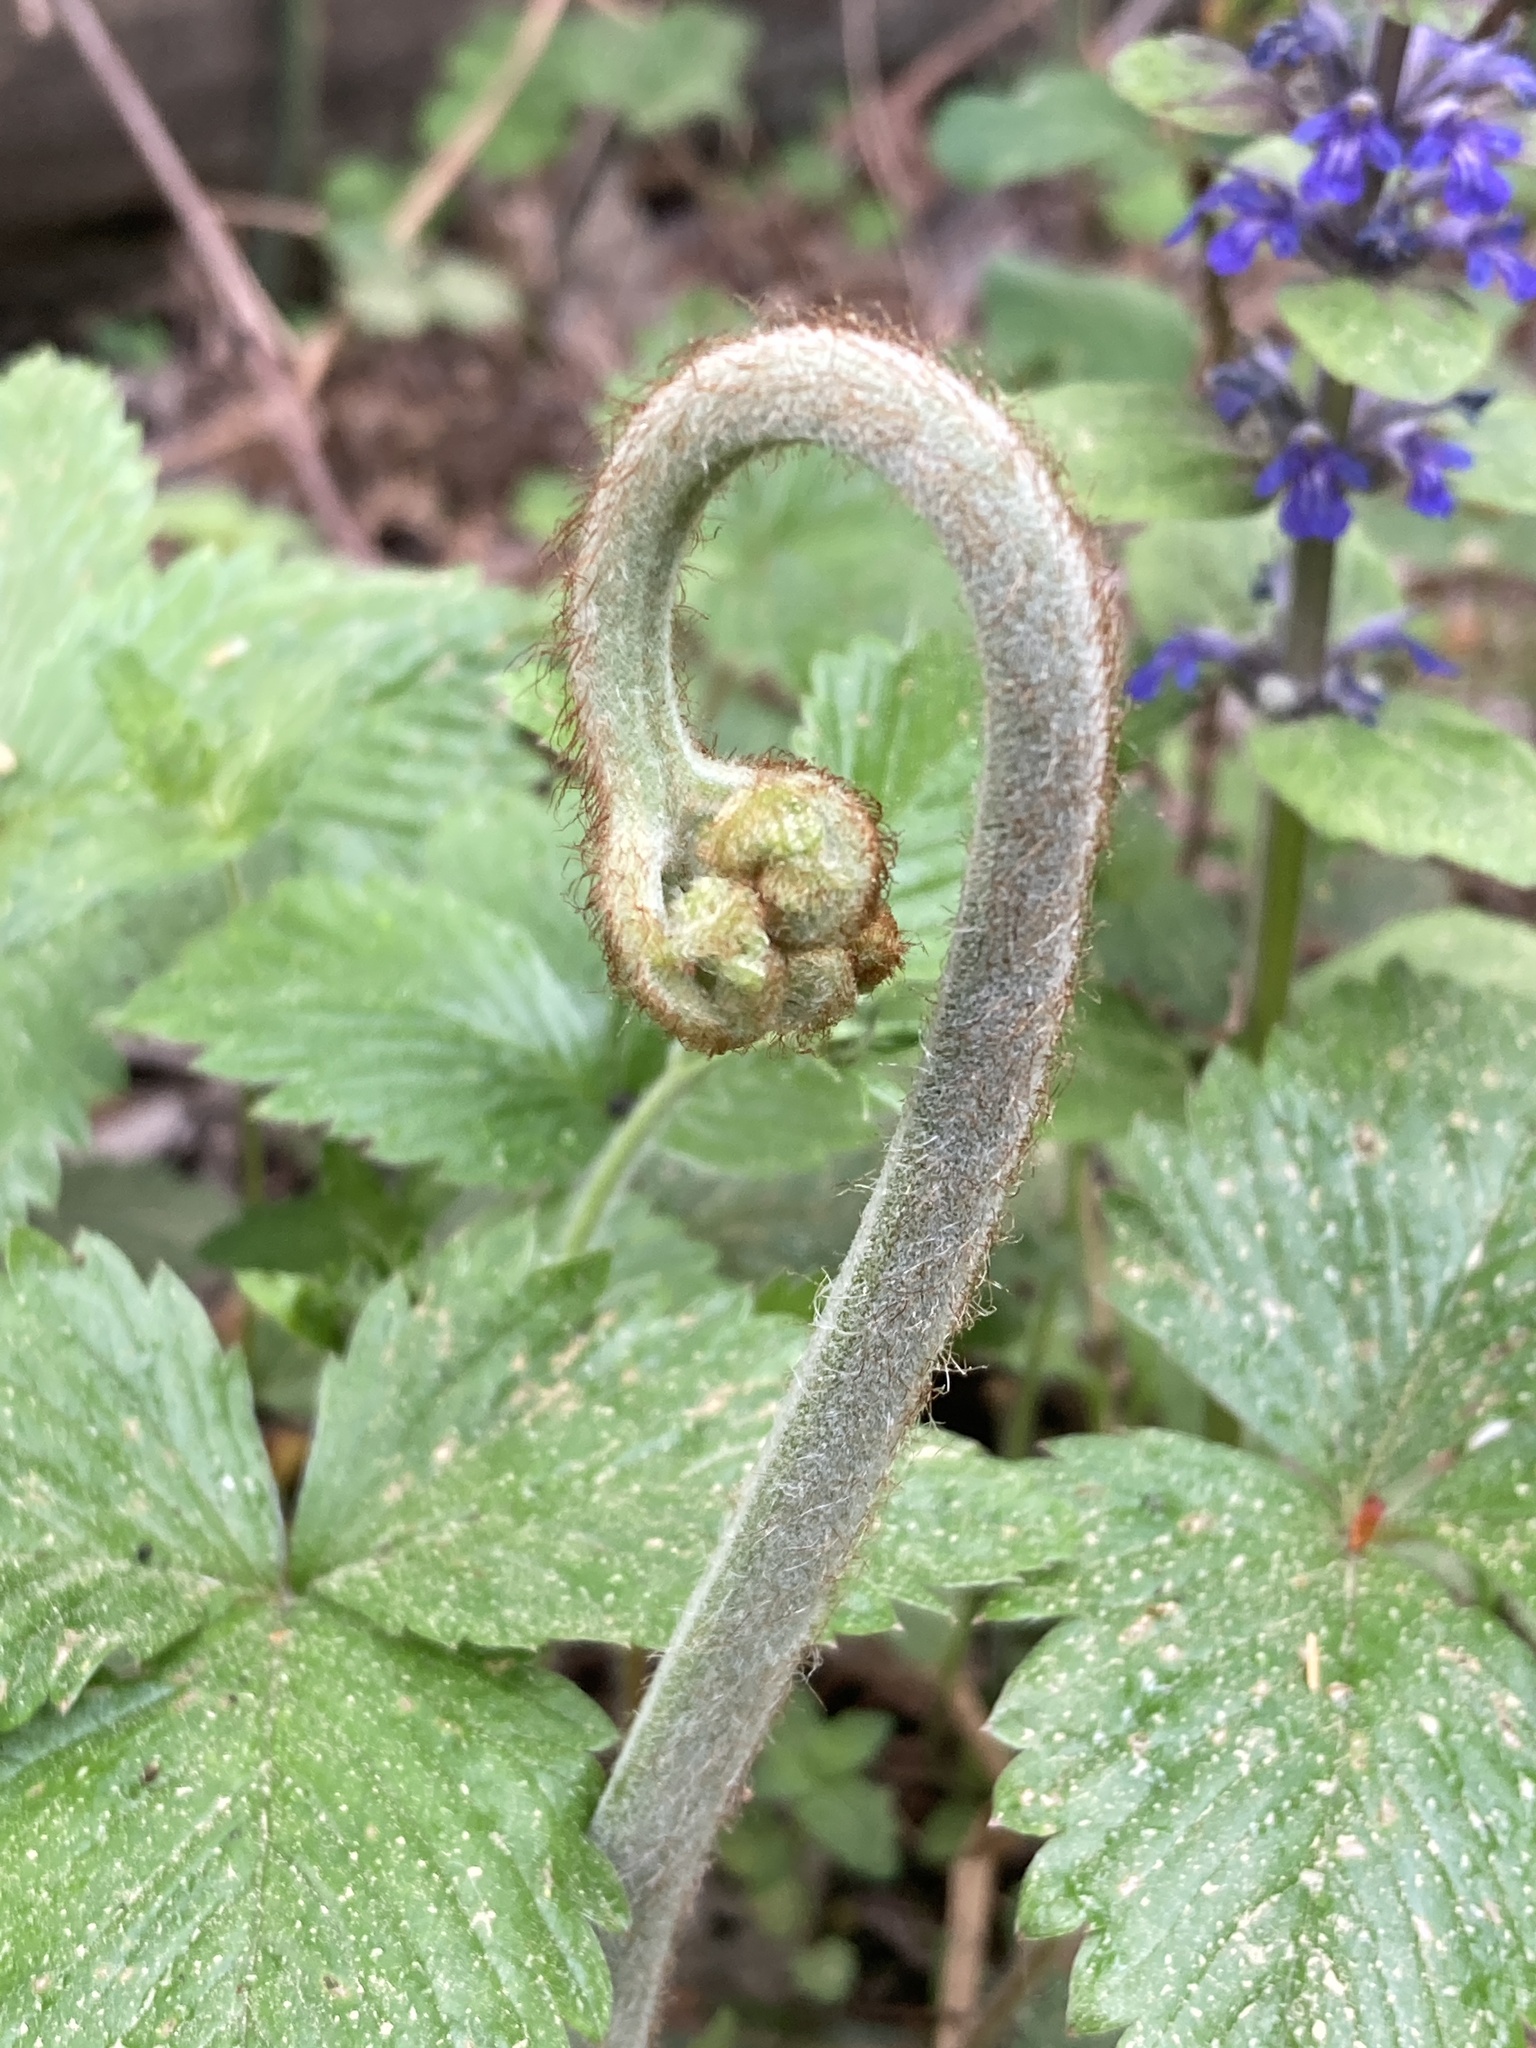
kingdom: Plantae
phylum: Tracheophyta
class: Polypodiopsida
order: Polypodiales
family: Dennstaedtiaceae
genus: Pteridium
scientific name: Pteridium aquilinum
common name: Bracken
